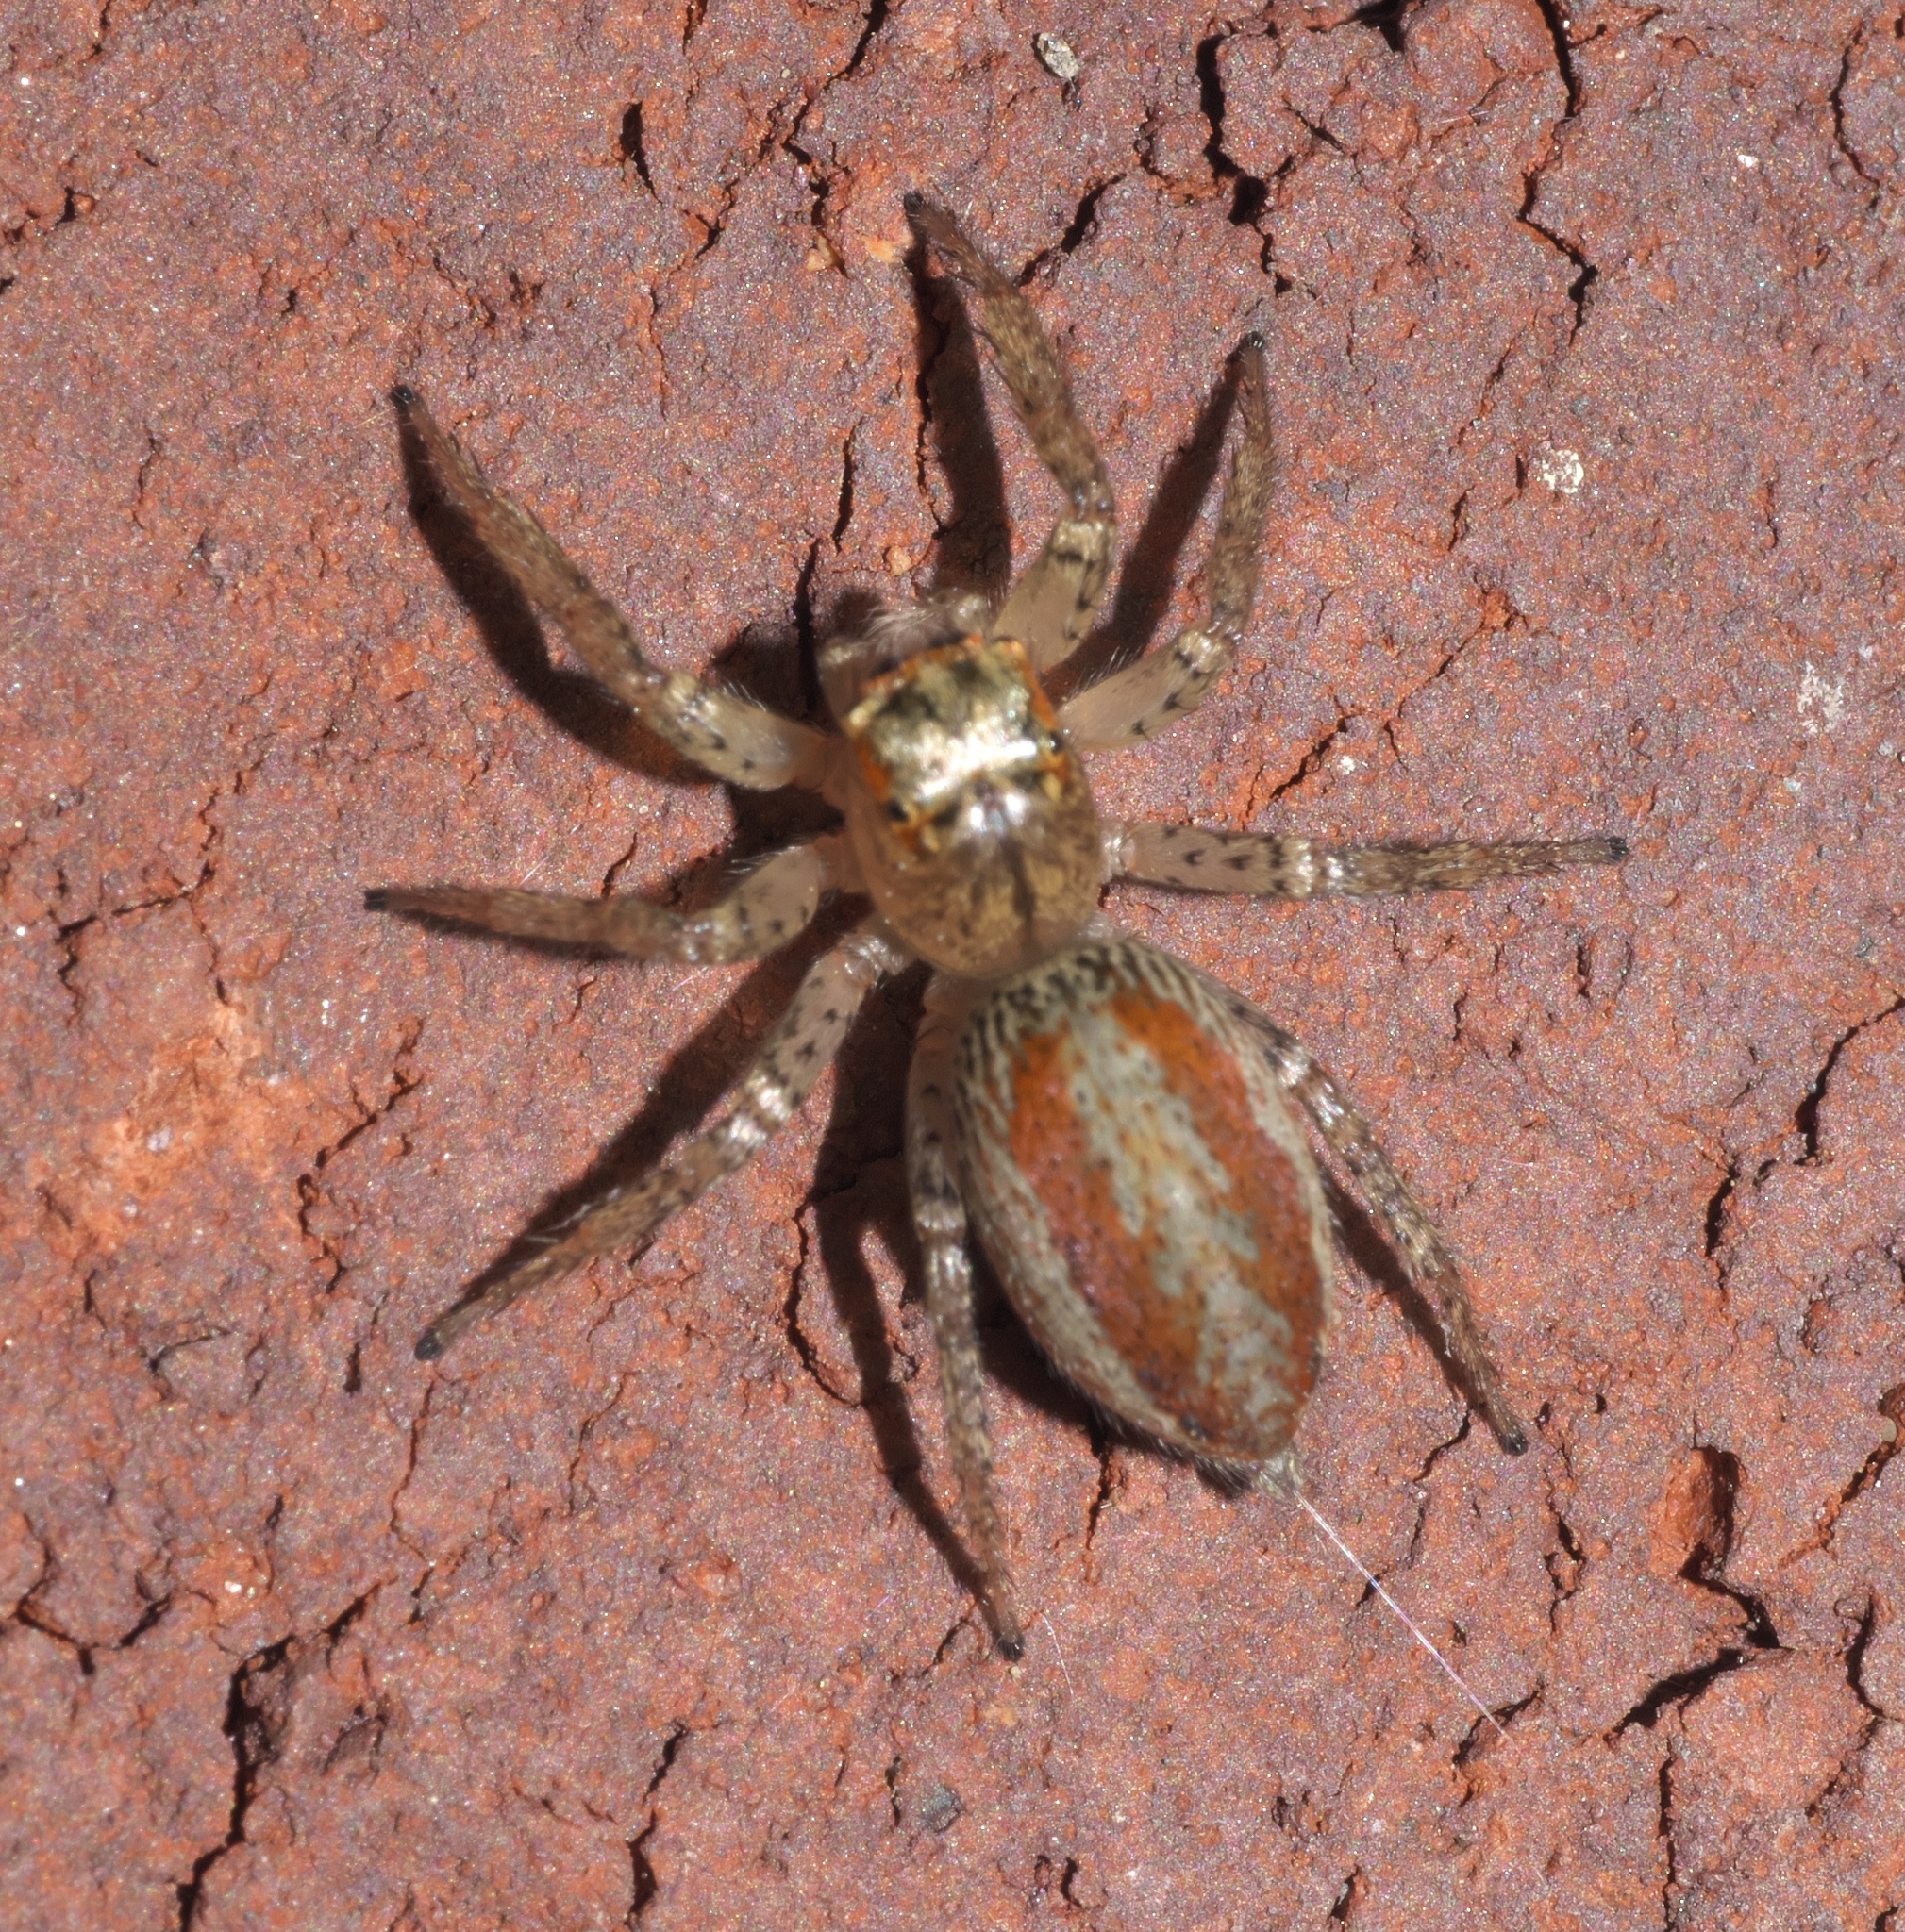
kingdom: Animalia
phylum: Arthropoda
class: Arachnida
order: Araneae
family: Salticidae
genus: Maevia
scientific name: Maevia inclemens
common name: Dimorphic jumper
